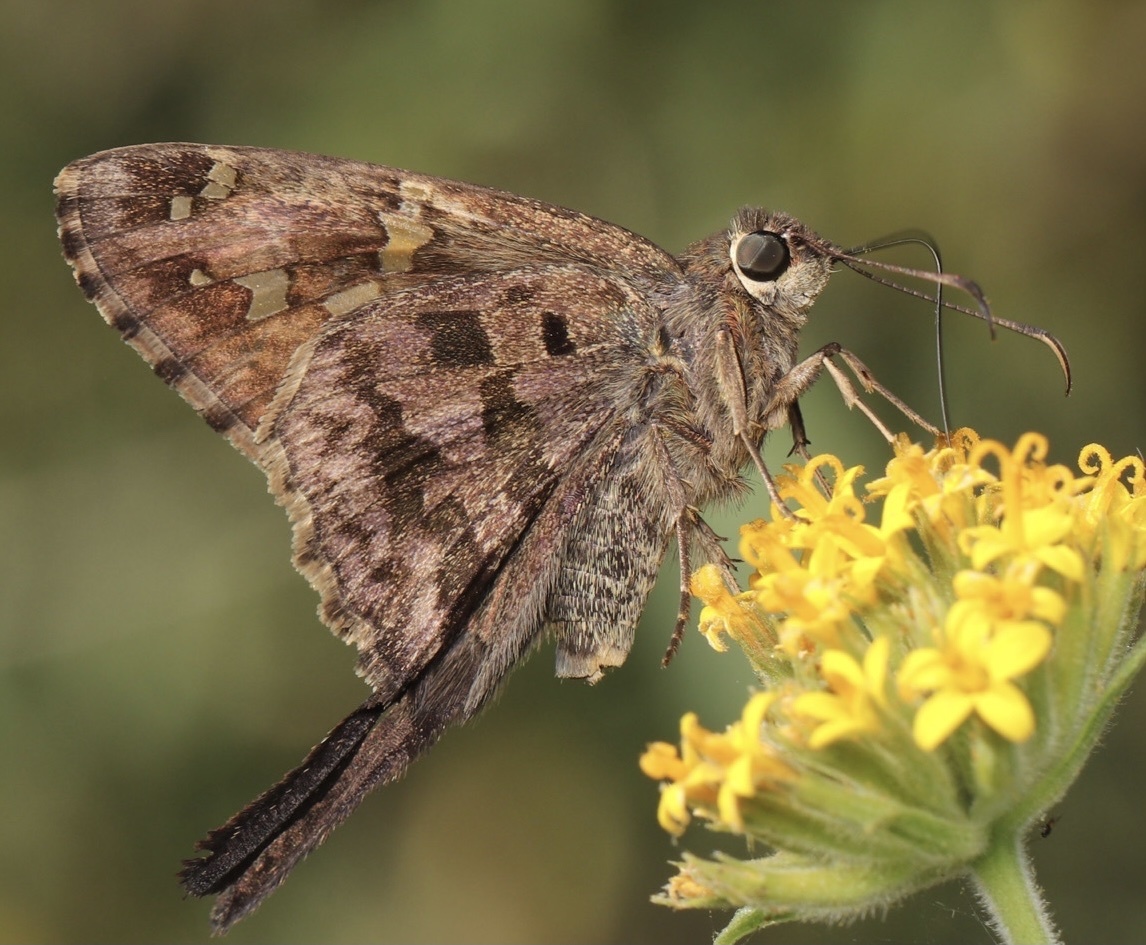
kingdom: Animalia
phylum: Arthropoda
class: Insecta
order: Lepidoptera
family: Hesperiidae
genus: Thorybes
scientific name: Thorybes
